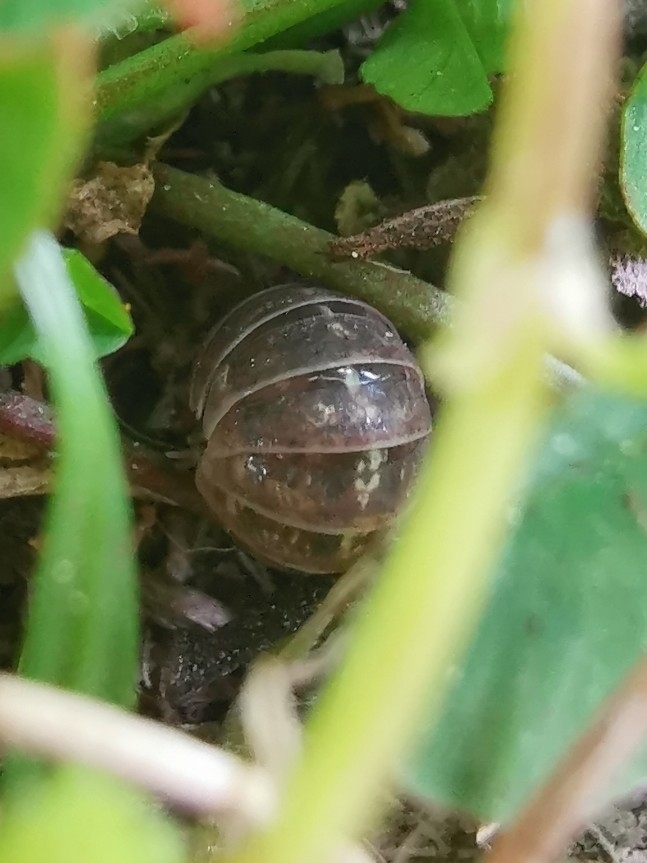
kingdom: Animalia
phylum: Arthropoda
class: Malacostraca
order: Isopoda
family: Armadillidiidae
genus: Armadillidium
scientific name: Armadillidium vulgare
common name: Common pill woodlouse
